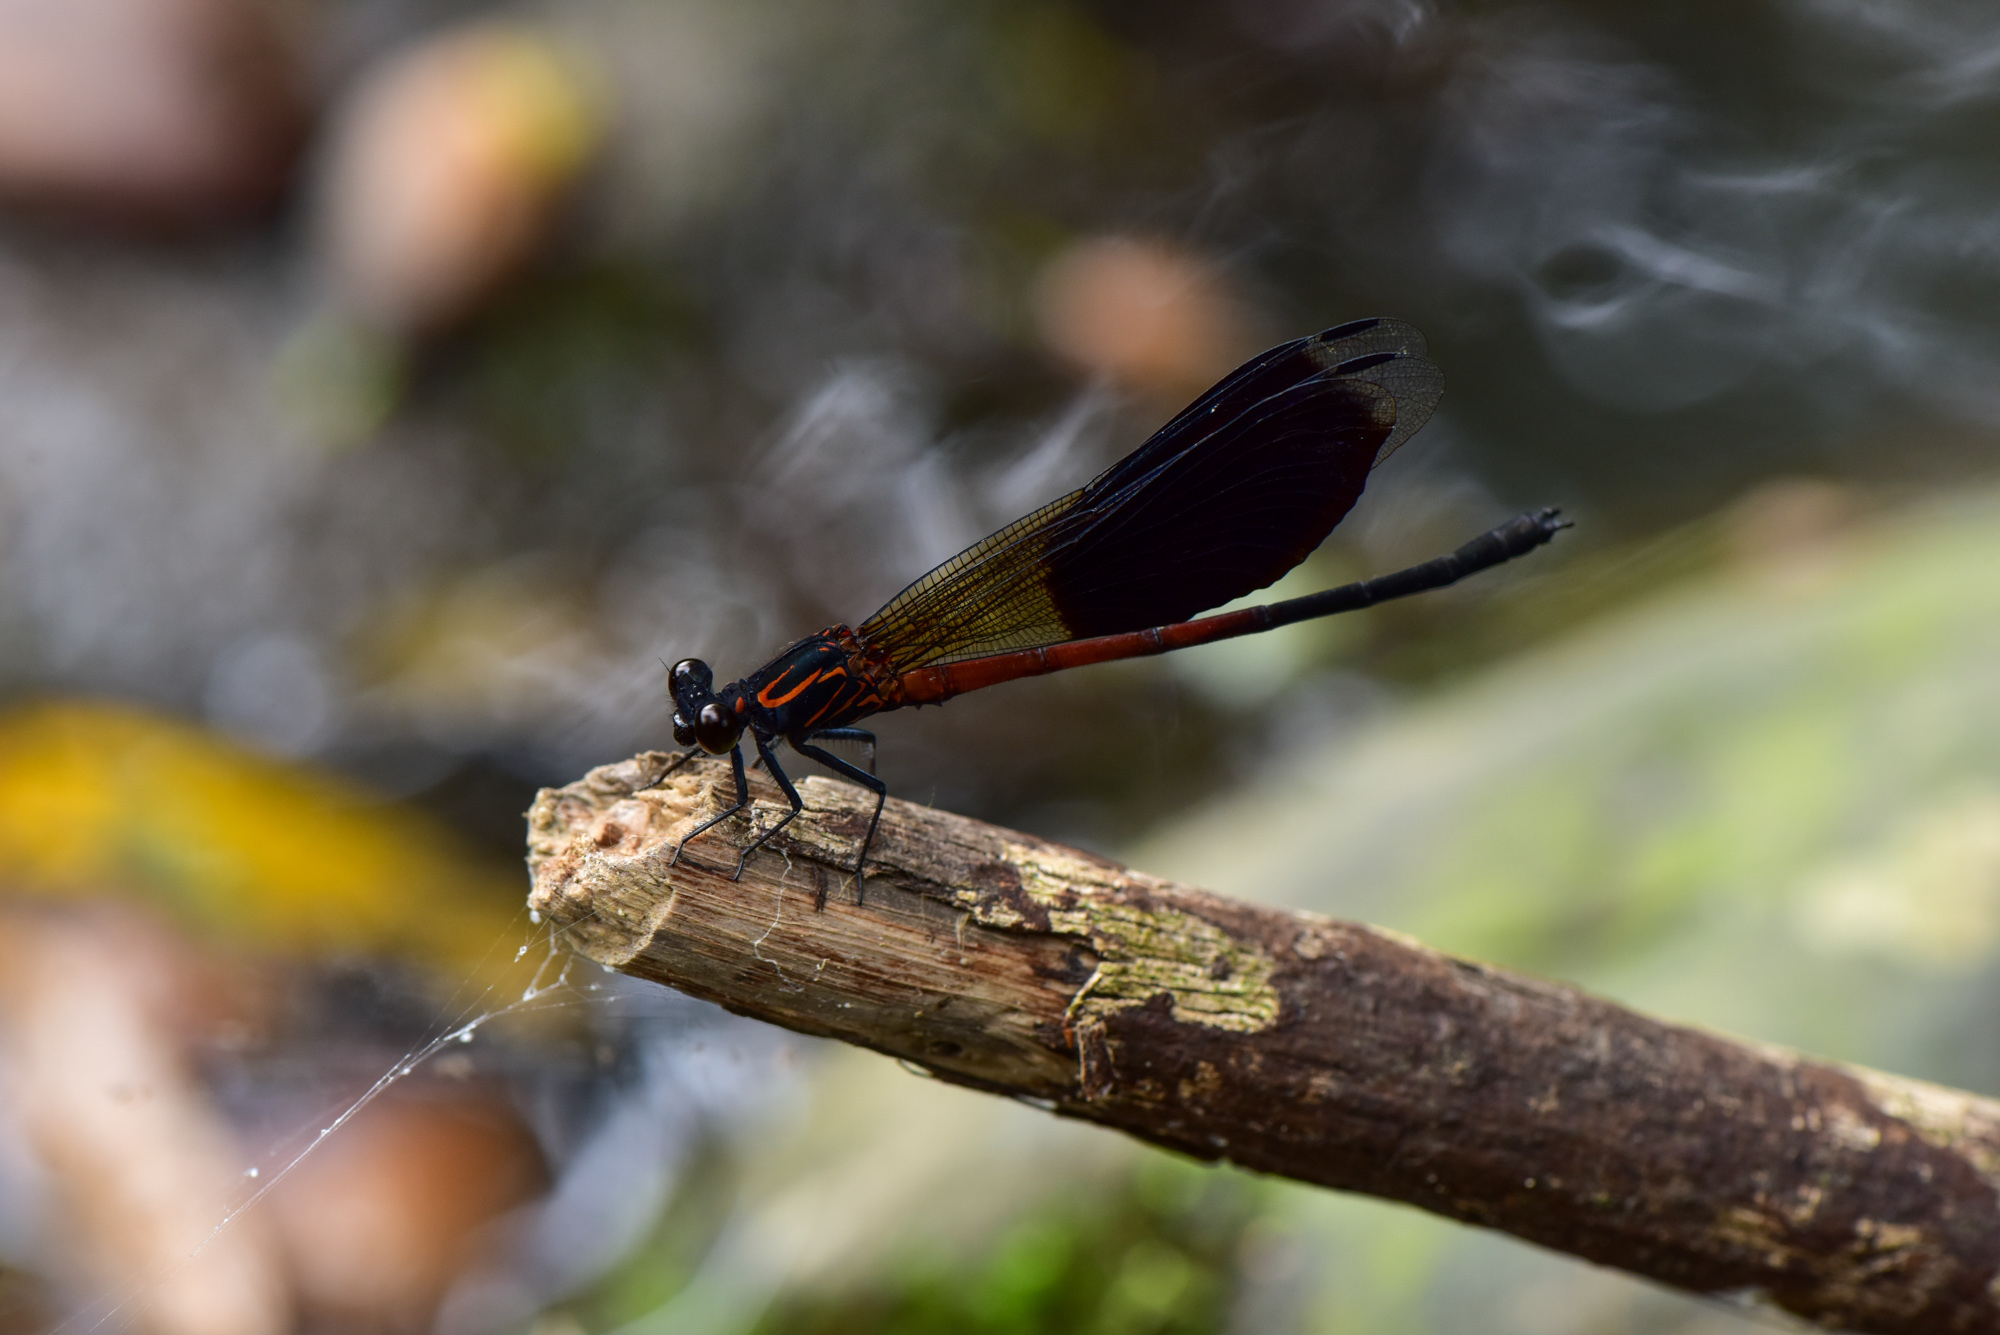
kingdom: Animalia
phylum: Arthropoda
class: Insecta
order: Odonata
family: Euphaeidae
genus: Euphaea
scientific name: Euphaea formosa
